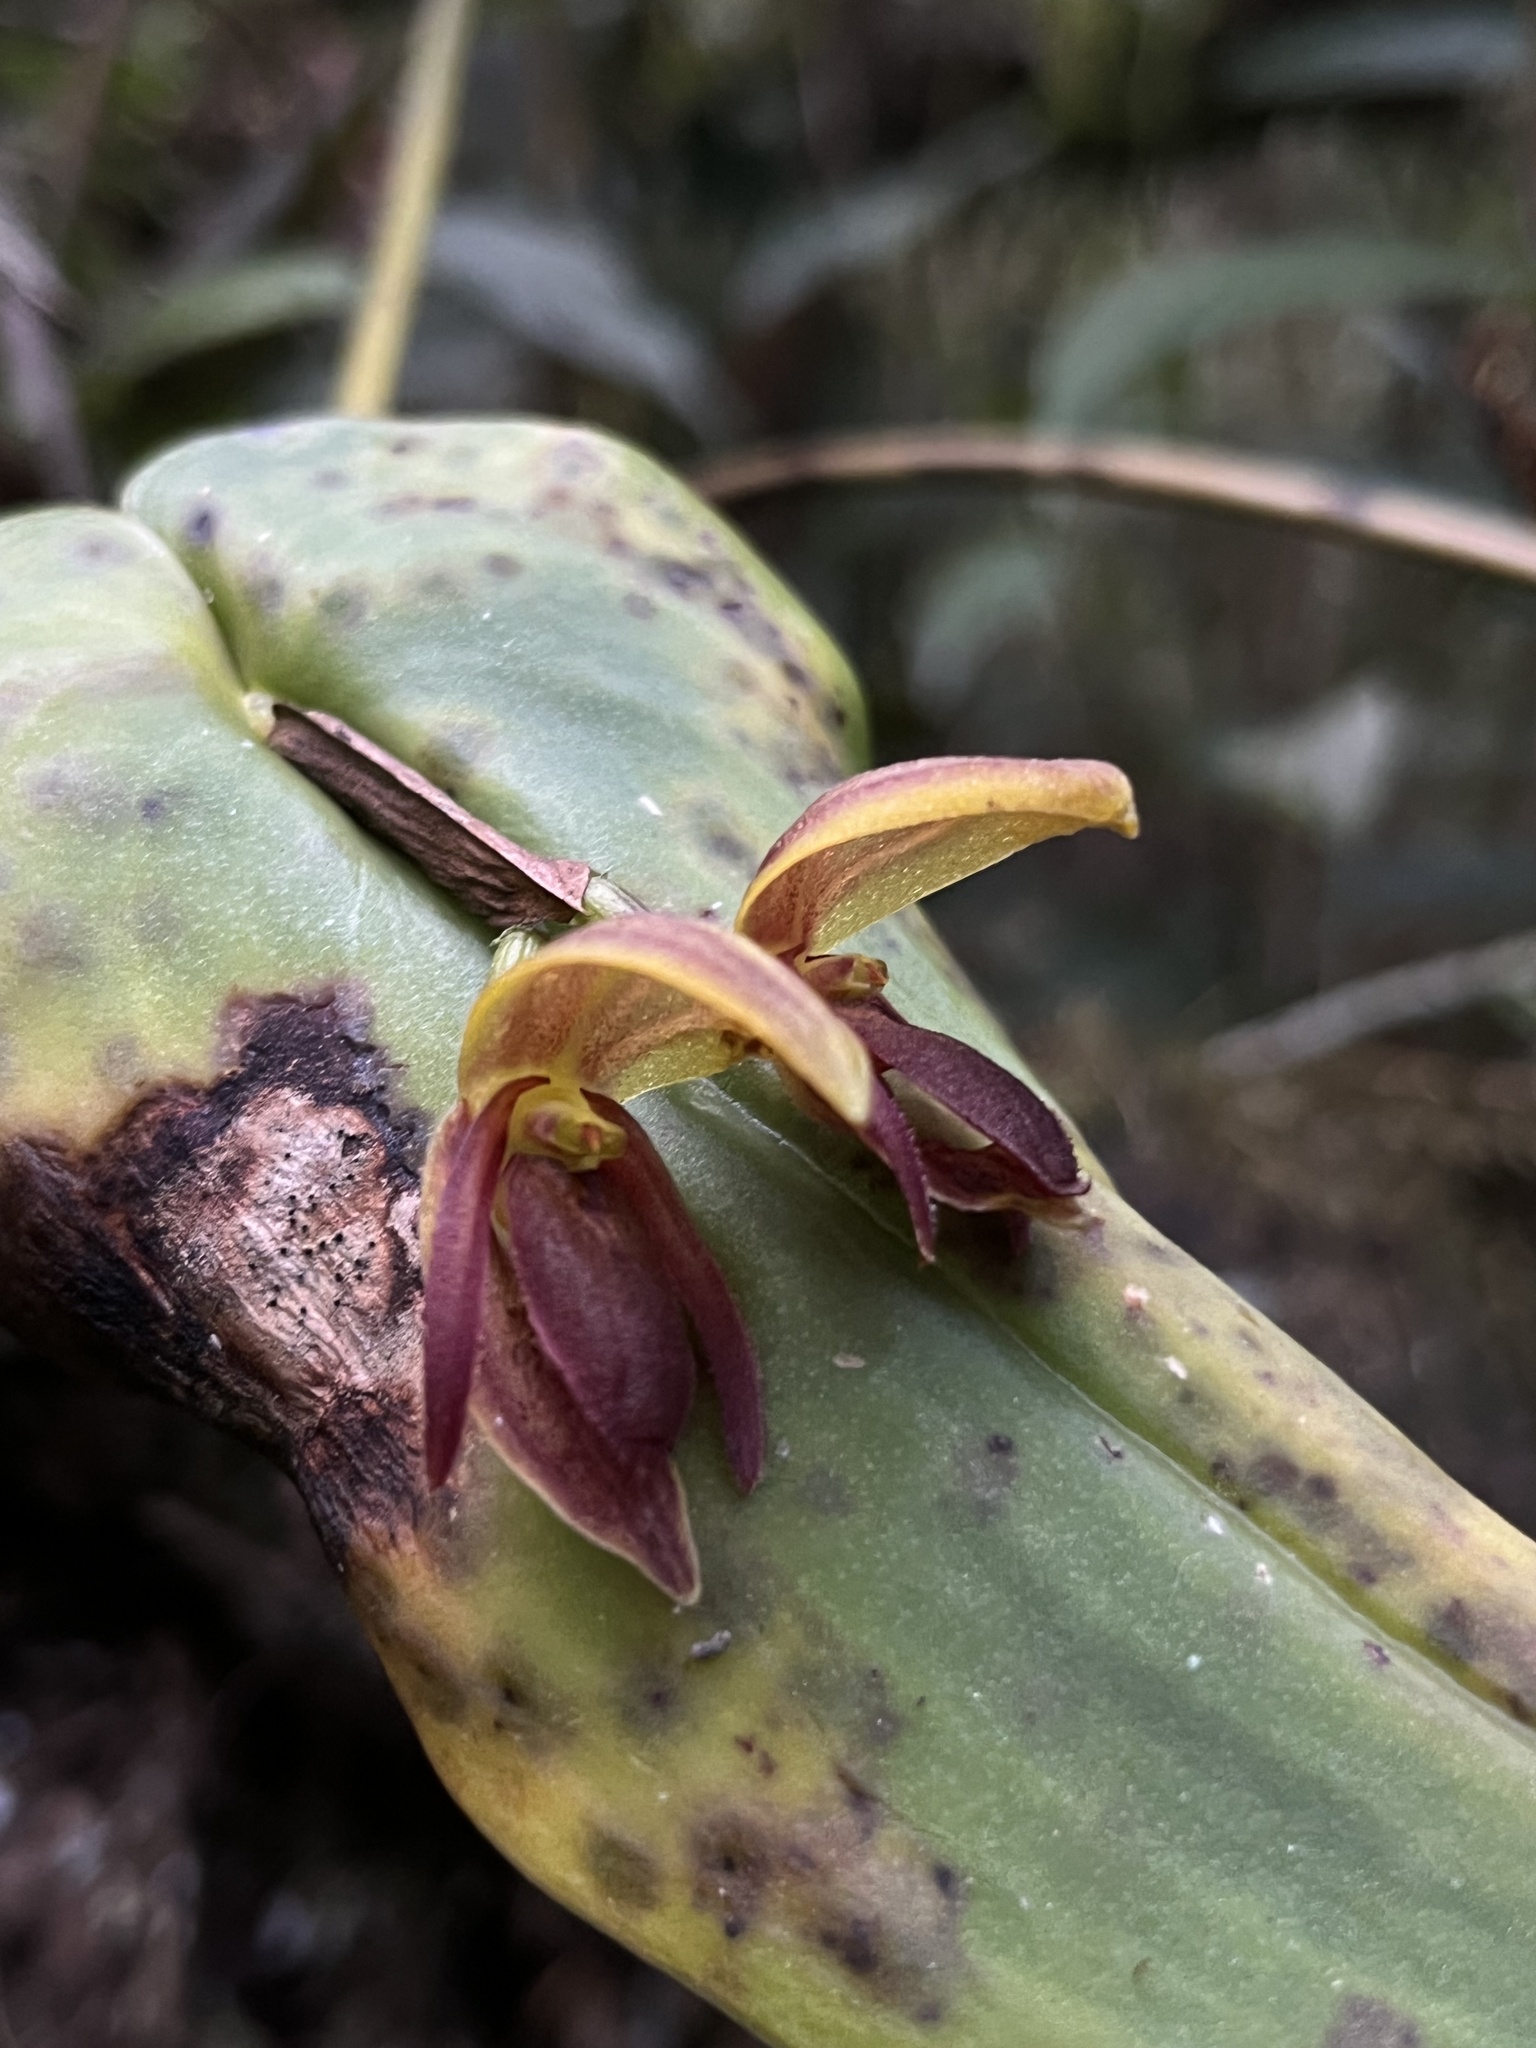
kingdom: Plantae
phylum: Tracheophyta
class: Liliopsida
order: Asparagales
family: Orchidaceae
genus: Pleurothallis
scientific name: Pleurothallis macrocardia
